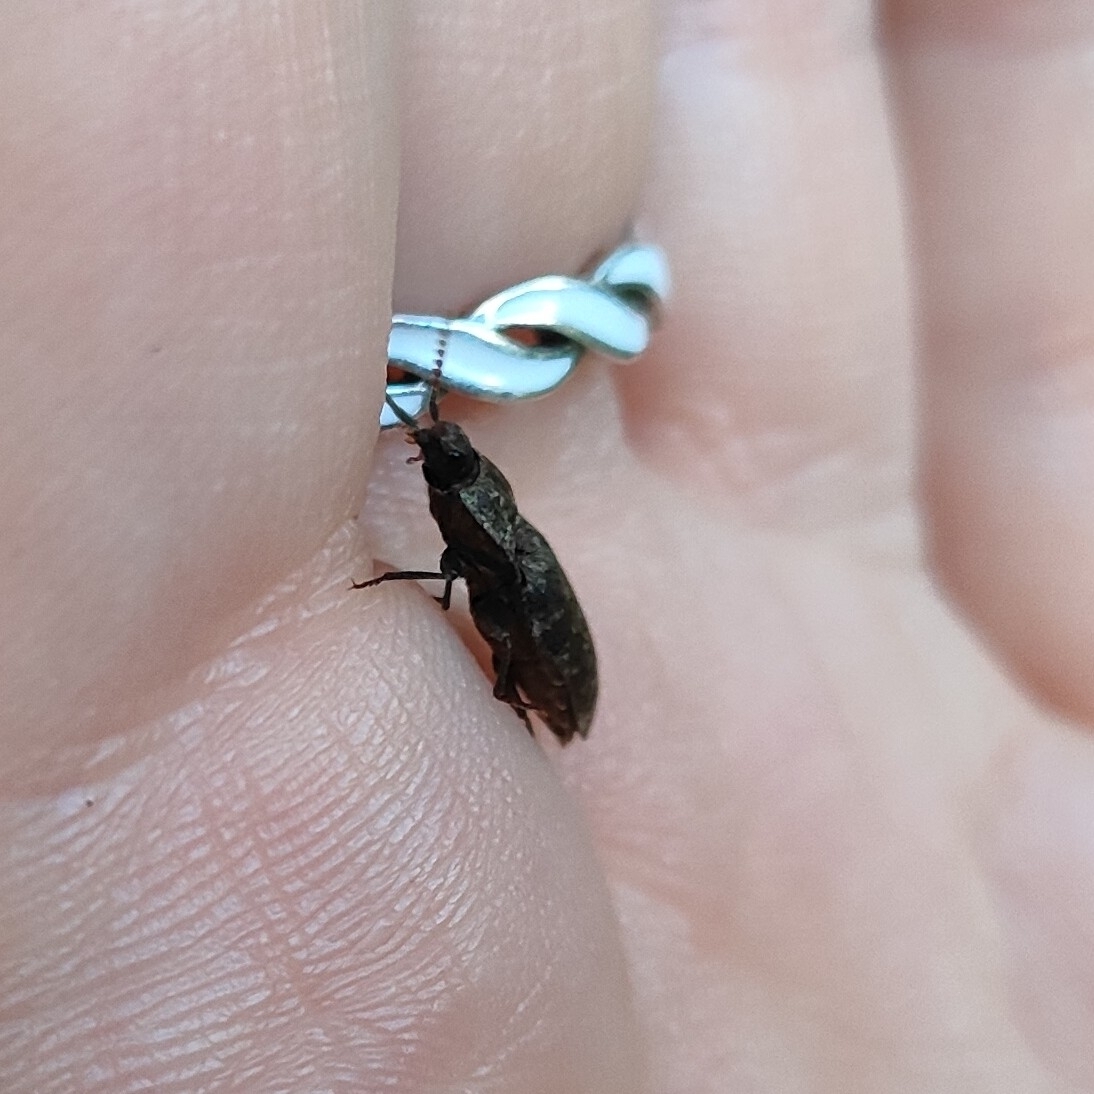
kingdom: Animalia
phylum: Arthropoda
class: Insecta
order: Coleoptera
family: Elateridae
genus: Agrypnus
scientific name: Agrypnus murinus
